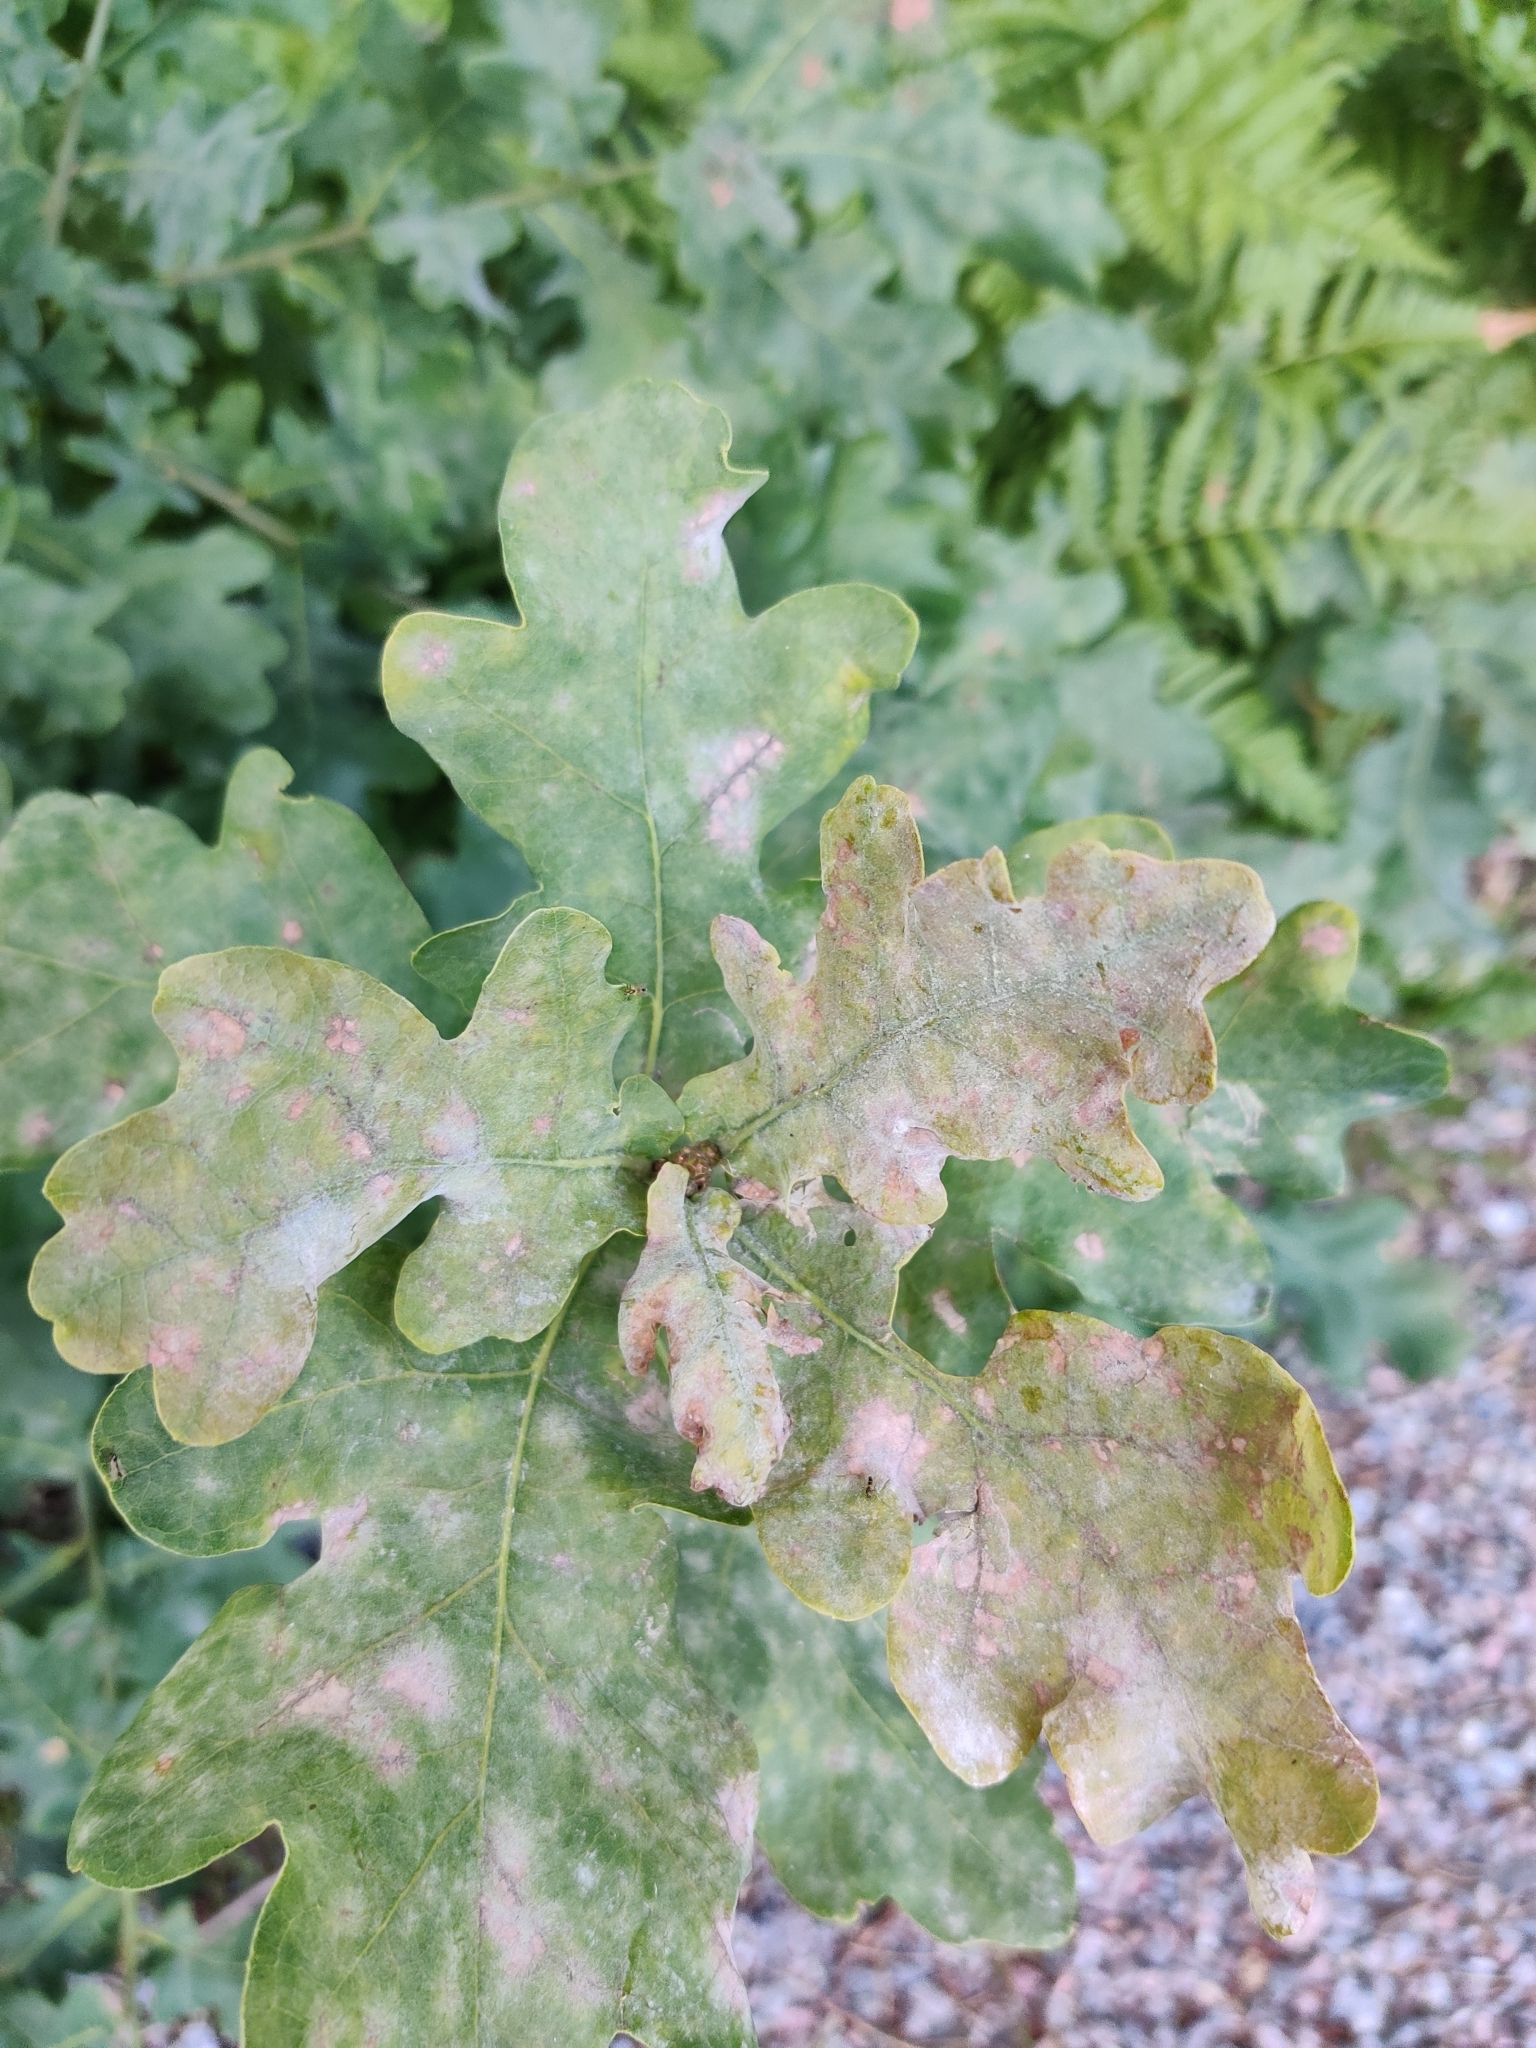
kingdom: Fungi
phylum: Ascomycota
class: Leotiomycetes
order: Helotiales
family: Erysiphaceae
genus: Erysiphe
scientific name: Erysiphe alphitoides
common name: Oak mildew
